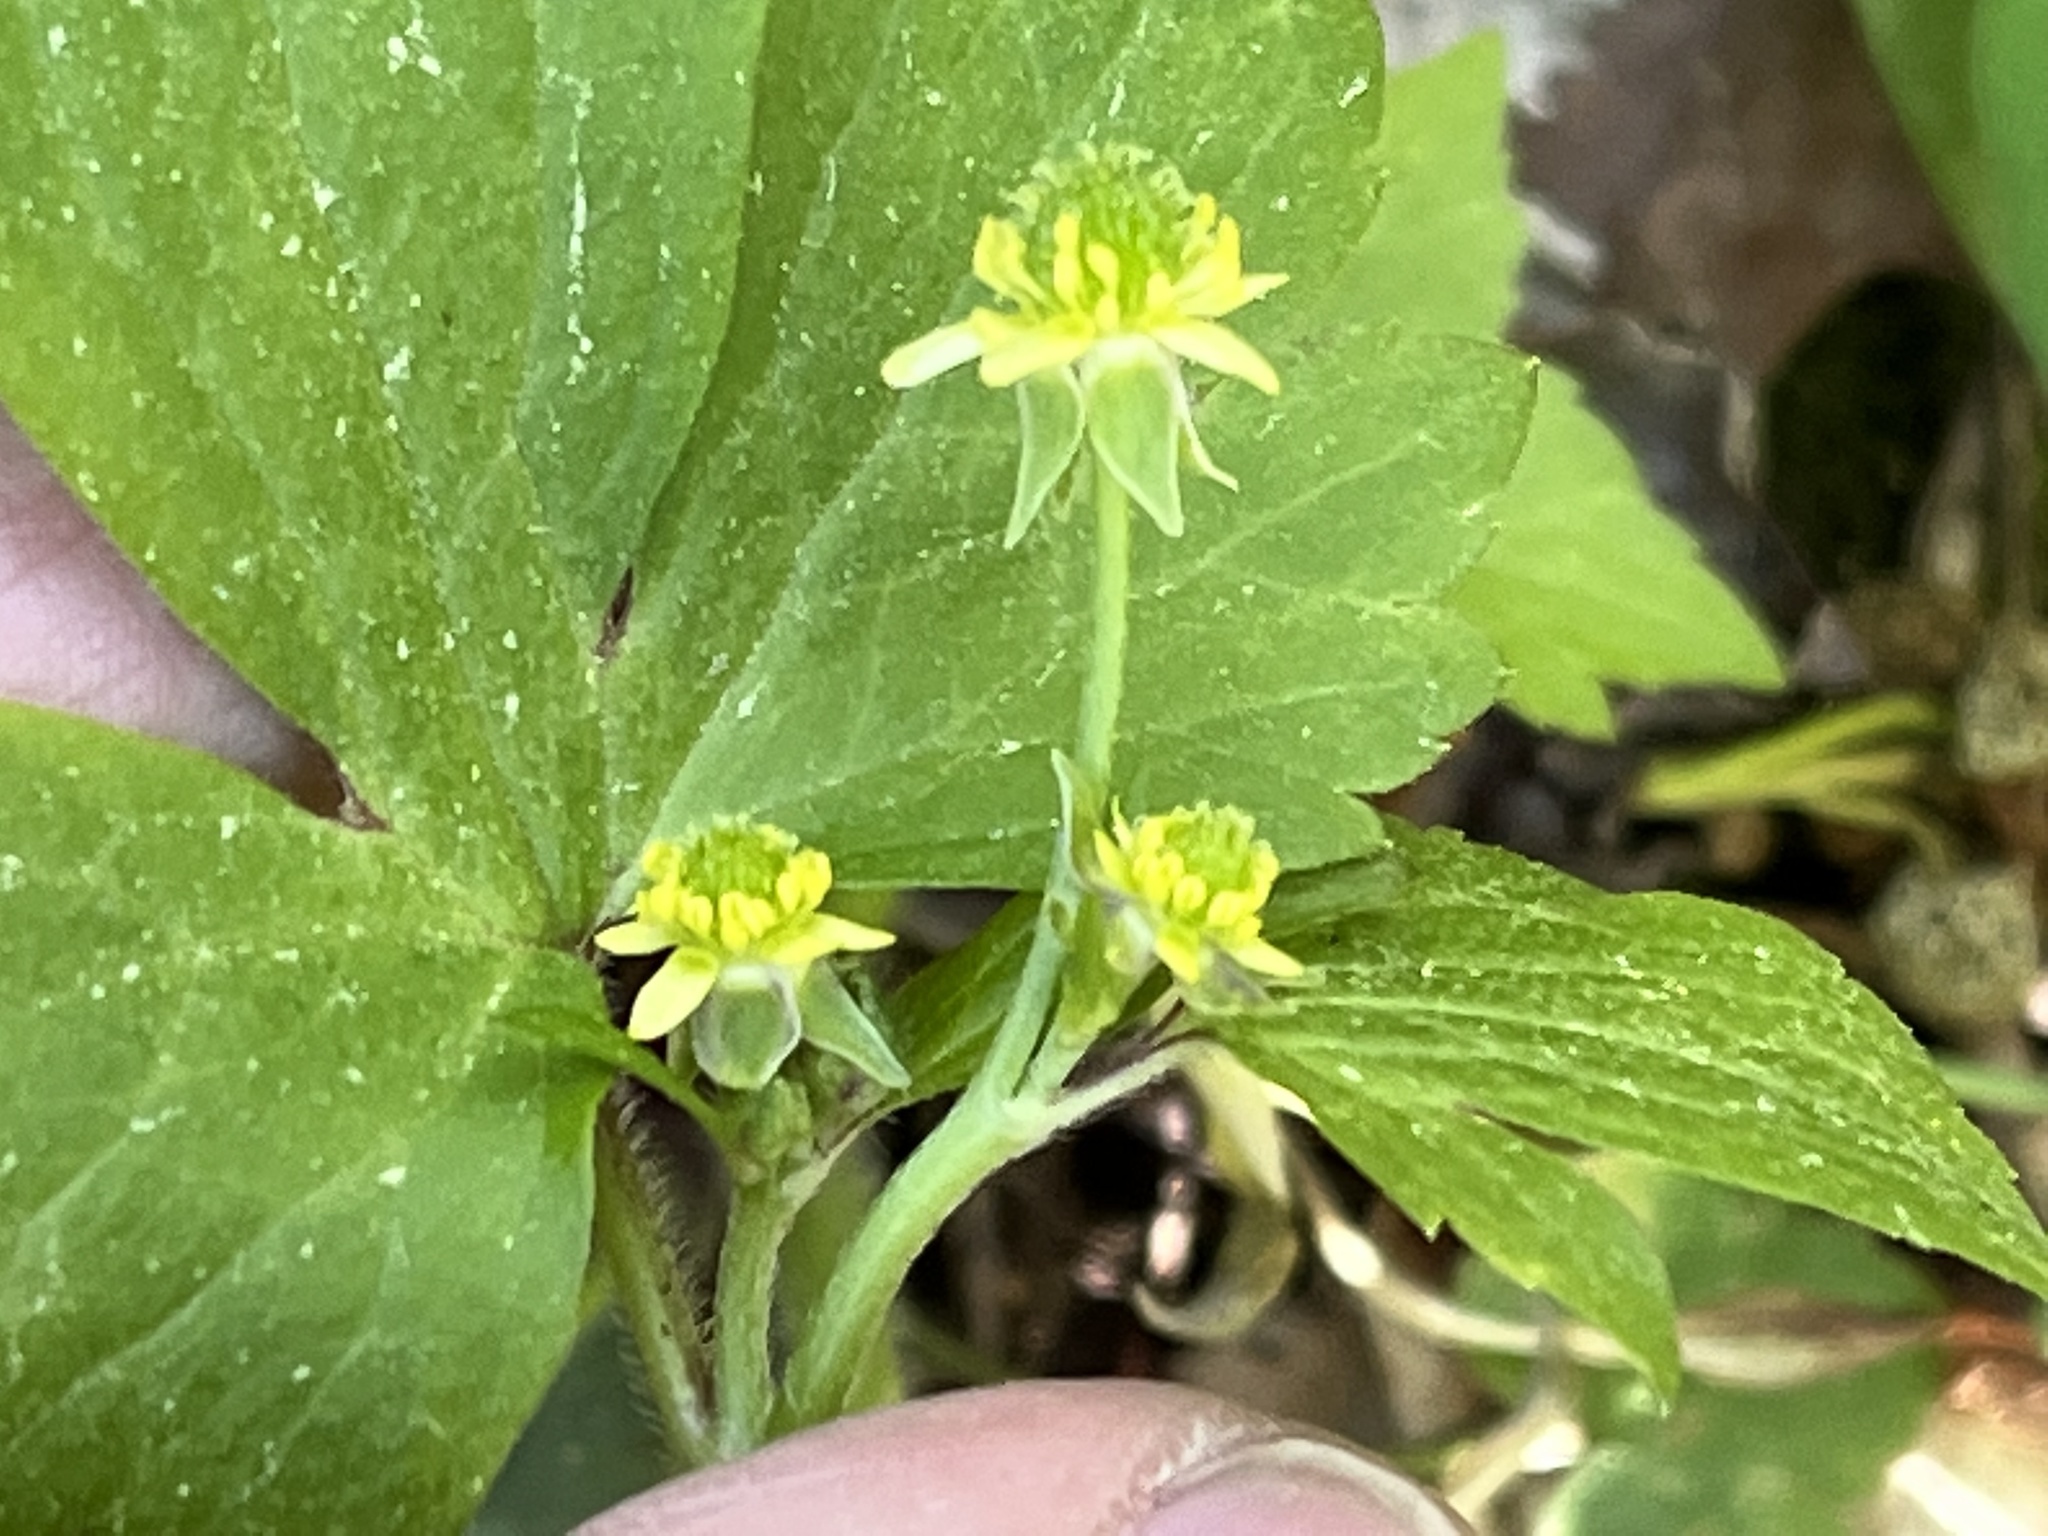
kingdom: Plantae
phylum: Tracheophyta
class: Magnoliopsida
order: Ranunculales
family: Ranunculaceae
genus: Ranunculus
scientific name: Ranunculus recurvatus
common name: Blisterwort
